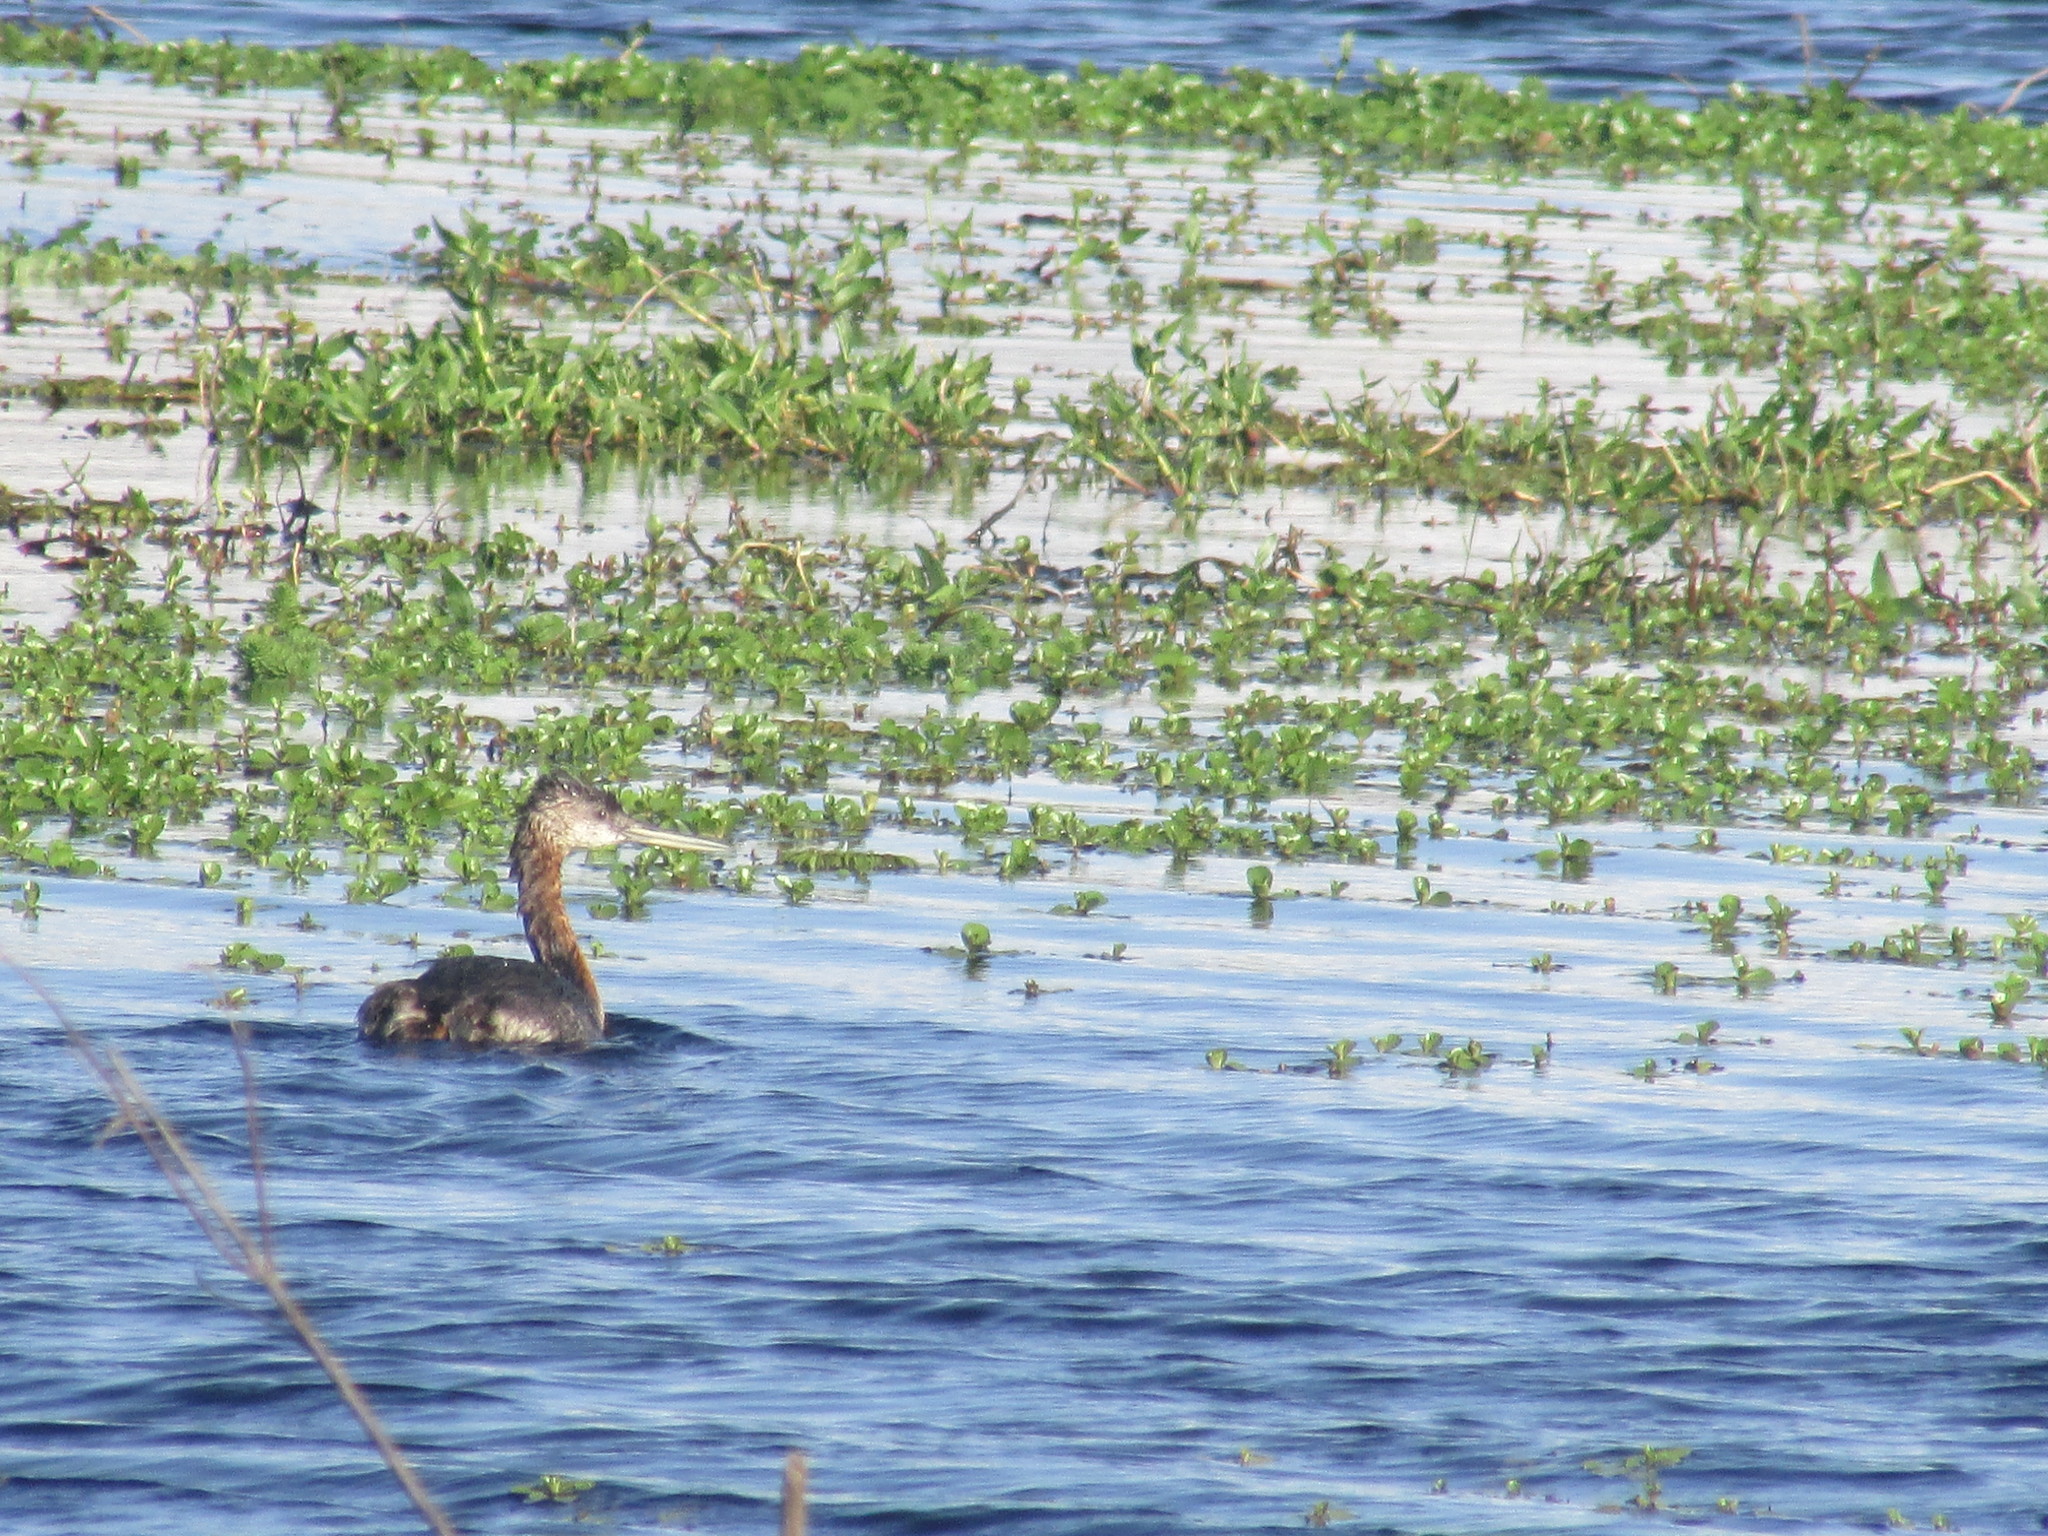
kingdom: Animalia
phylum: Chordata
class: Aves
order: Podicipediformes
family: Podicipedidae
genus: Podiceps
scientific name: Podiceps major
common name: Great grebe
